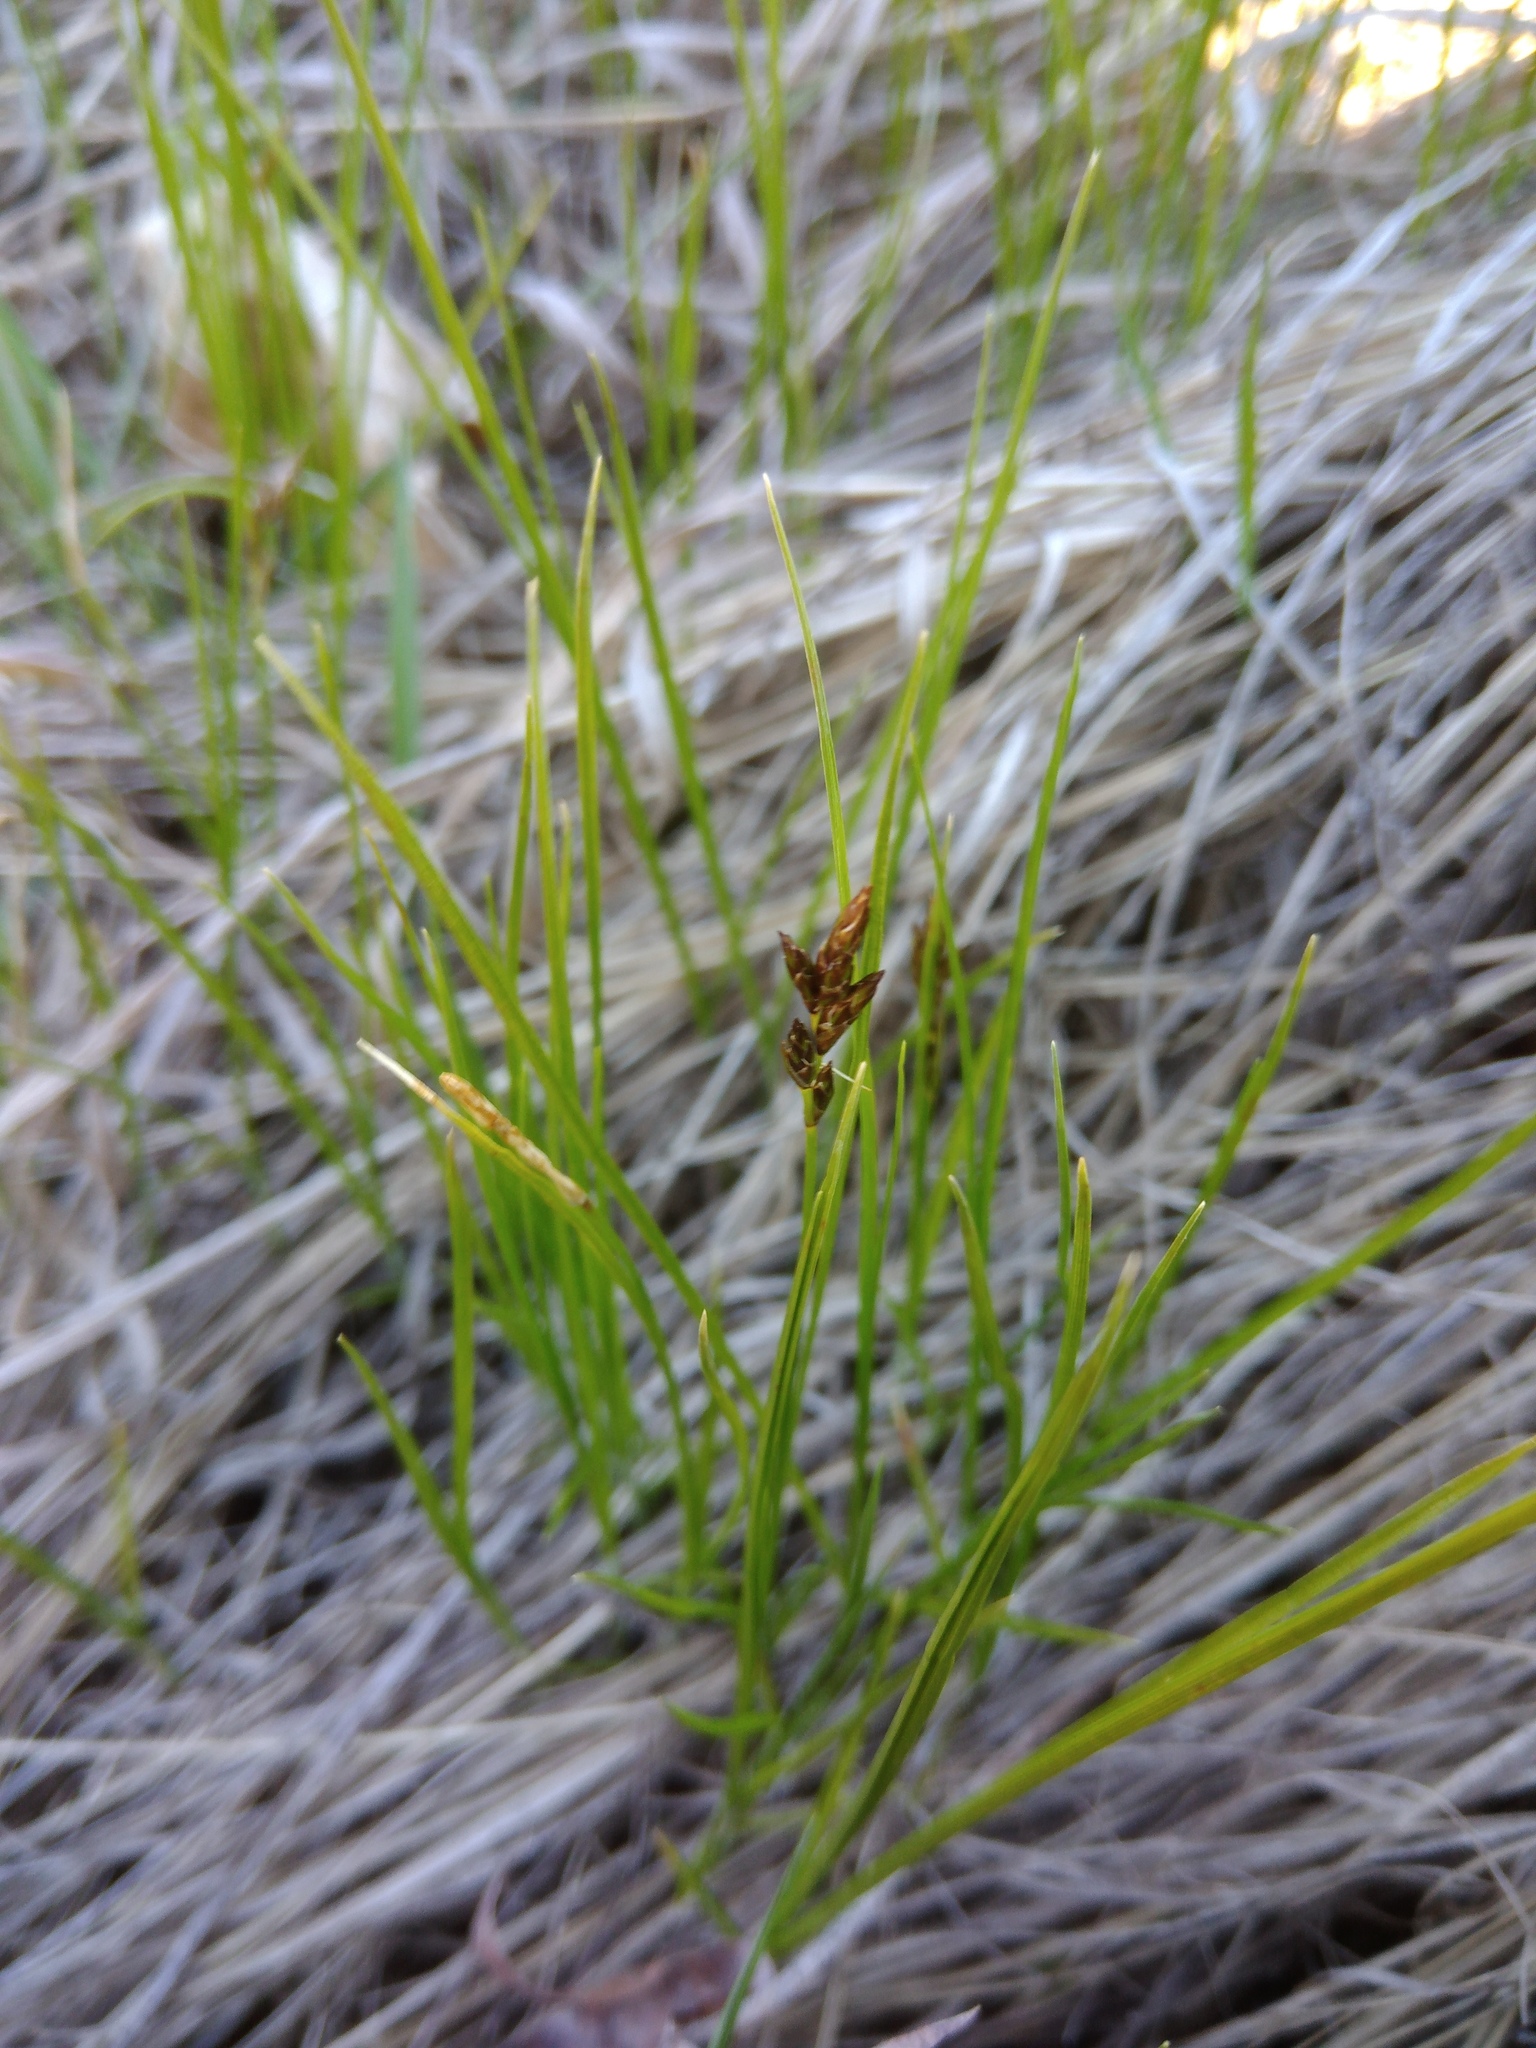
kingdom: Plantae
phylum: Tracheophyta
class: Liliopsida
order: Poales
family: Cyperaceae
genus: Carex
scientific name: Carex praecox
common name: Early sedge
